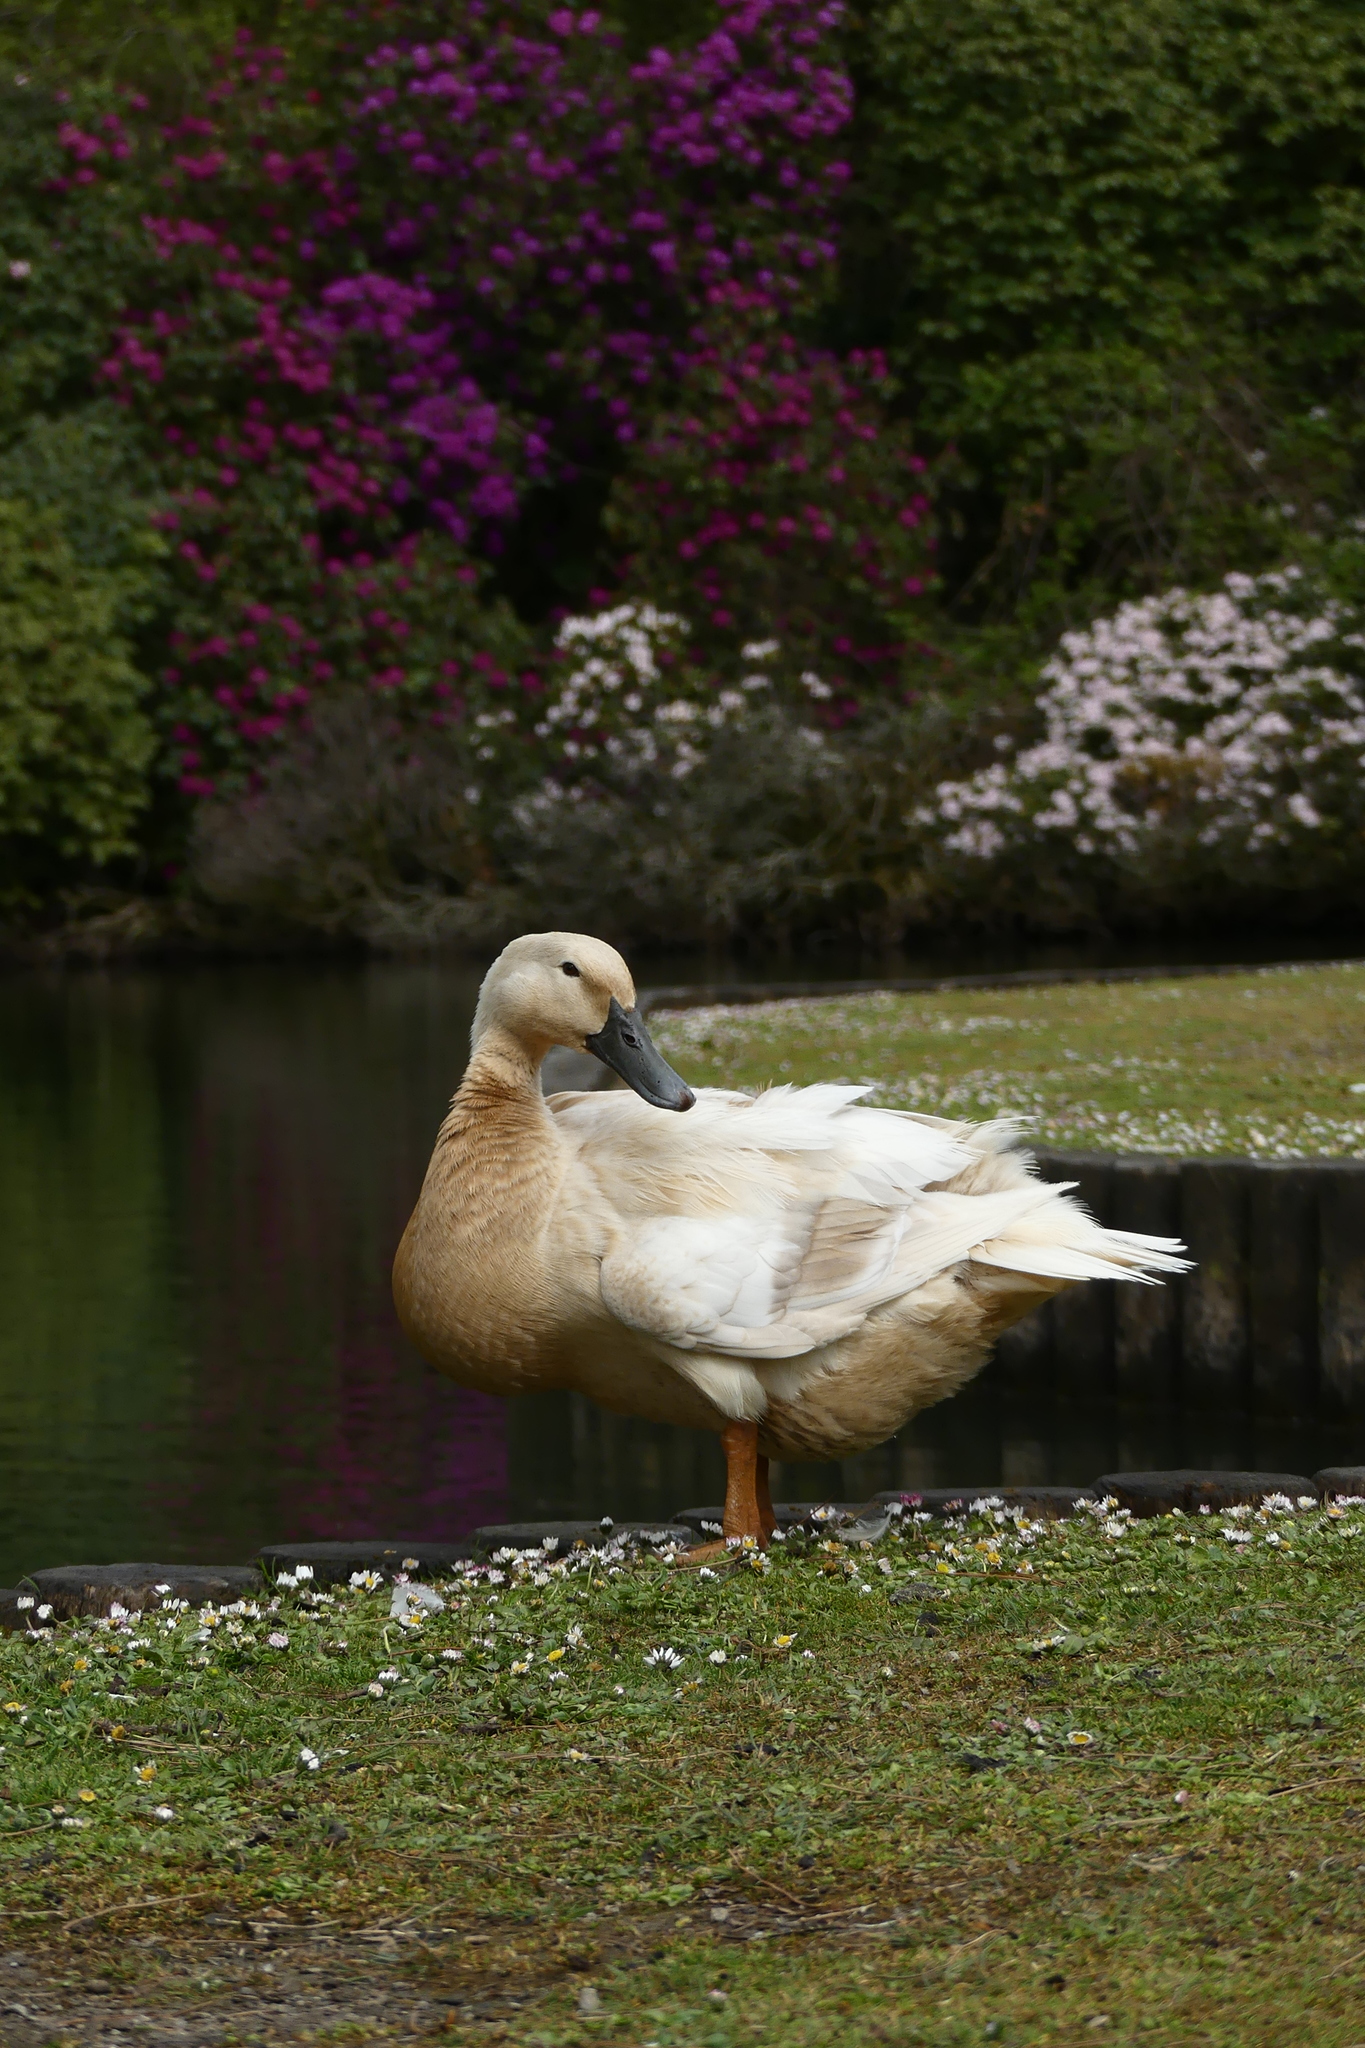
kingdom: Animalia
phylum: Chordata
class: Aves
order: Anseriformes
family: Anatidae
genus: Anas
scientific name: Anas platyrhynchos
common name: Mallard
